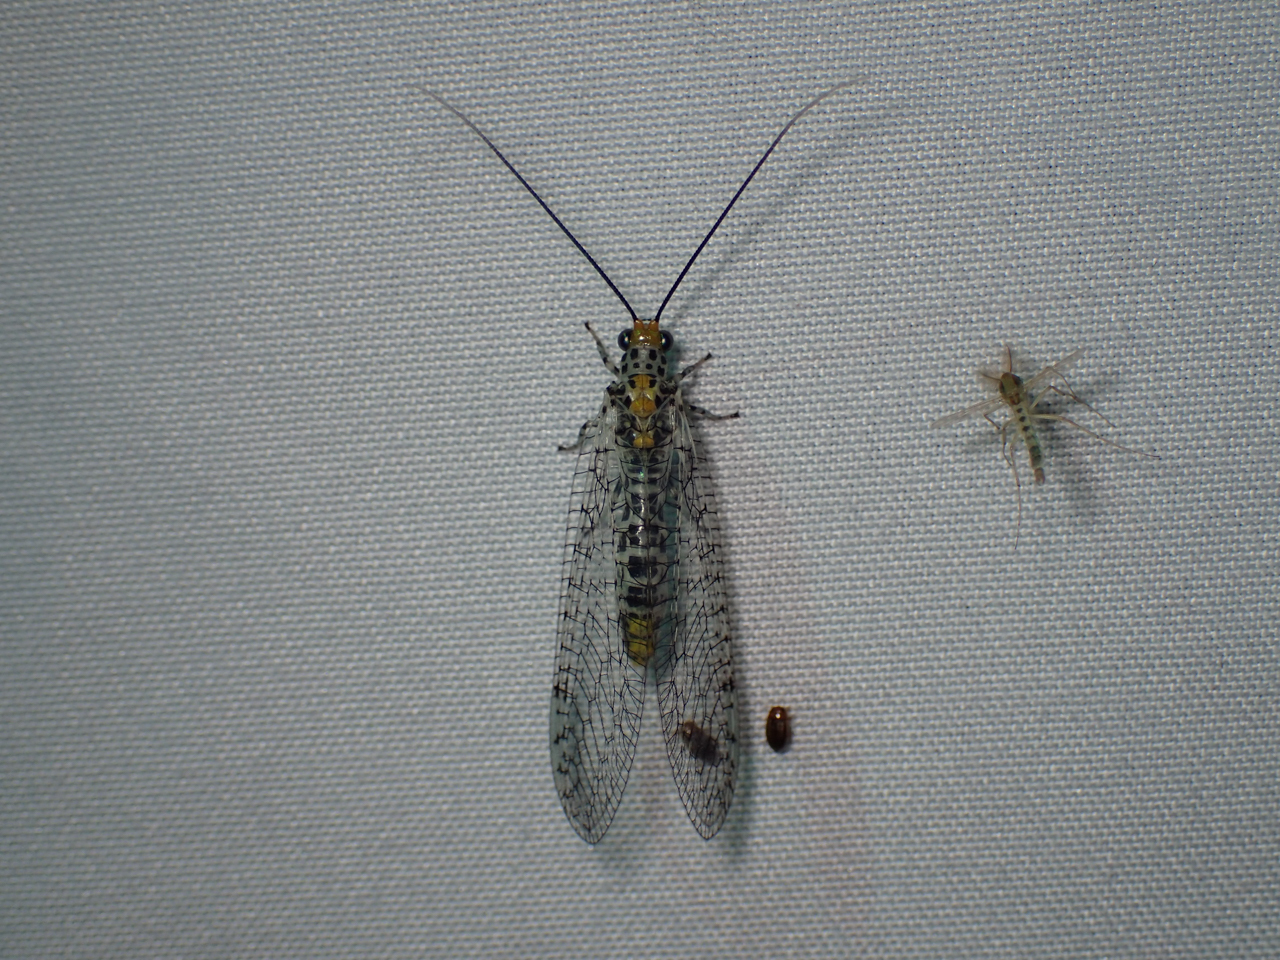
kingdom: Animalia
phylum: Arthropoda
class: Insecta
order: Neuroptera
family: Chrysopidae
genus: Abachrysa
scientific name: Abachrysa eureka
